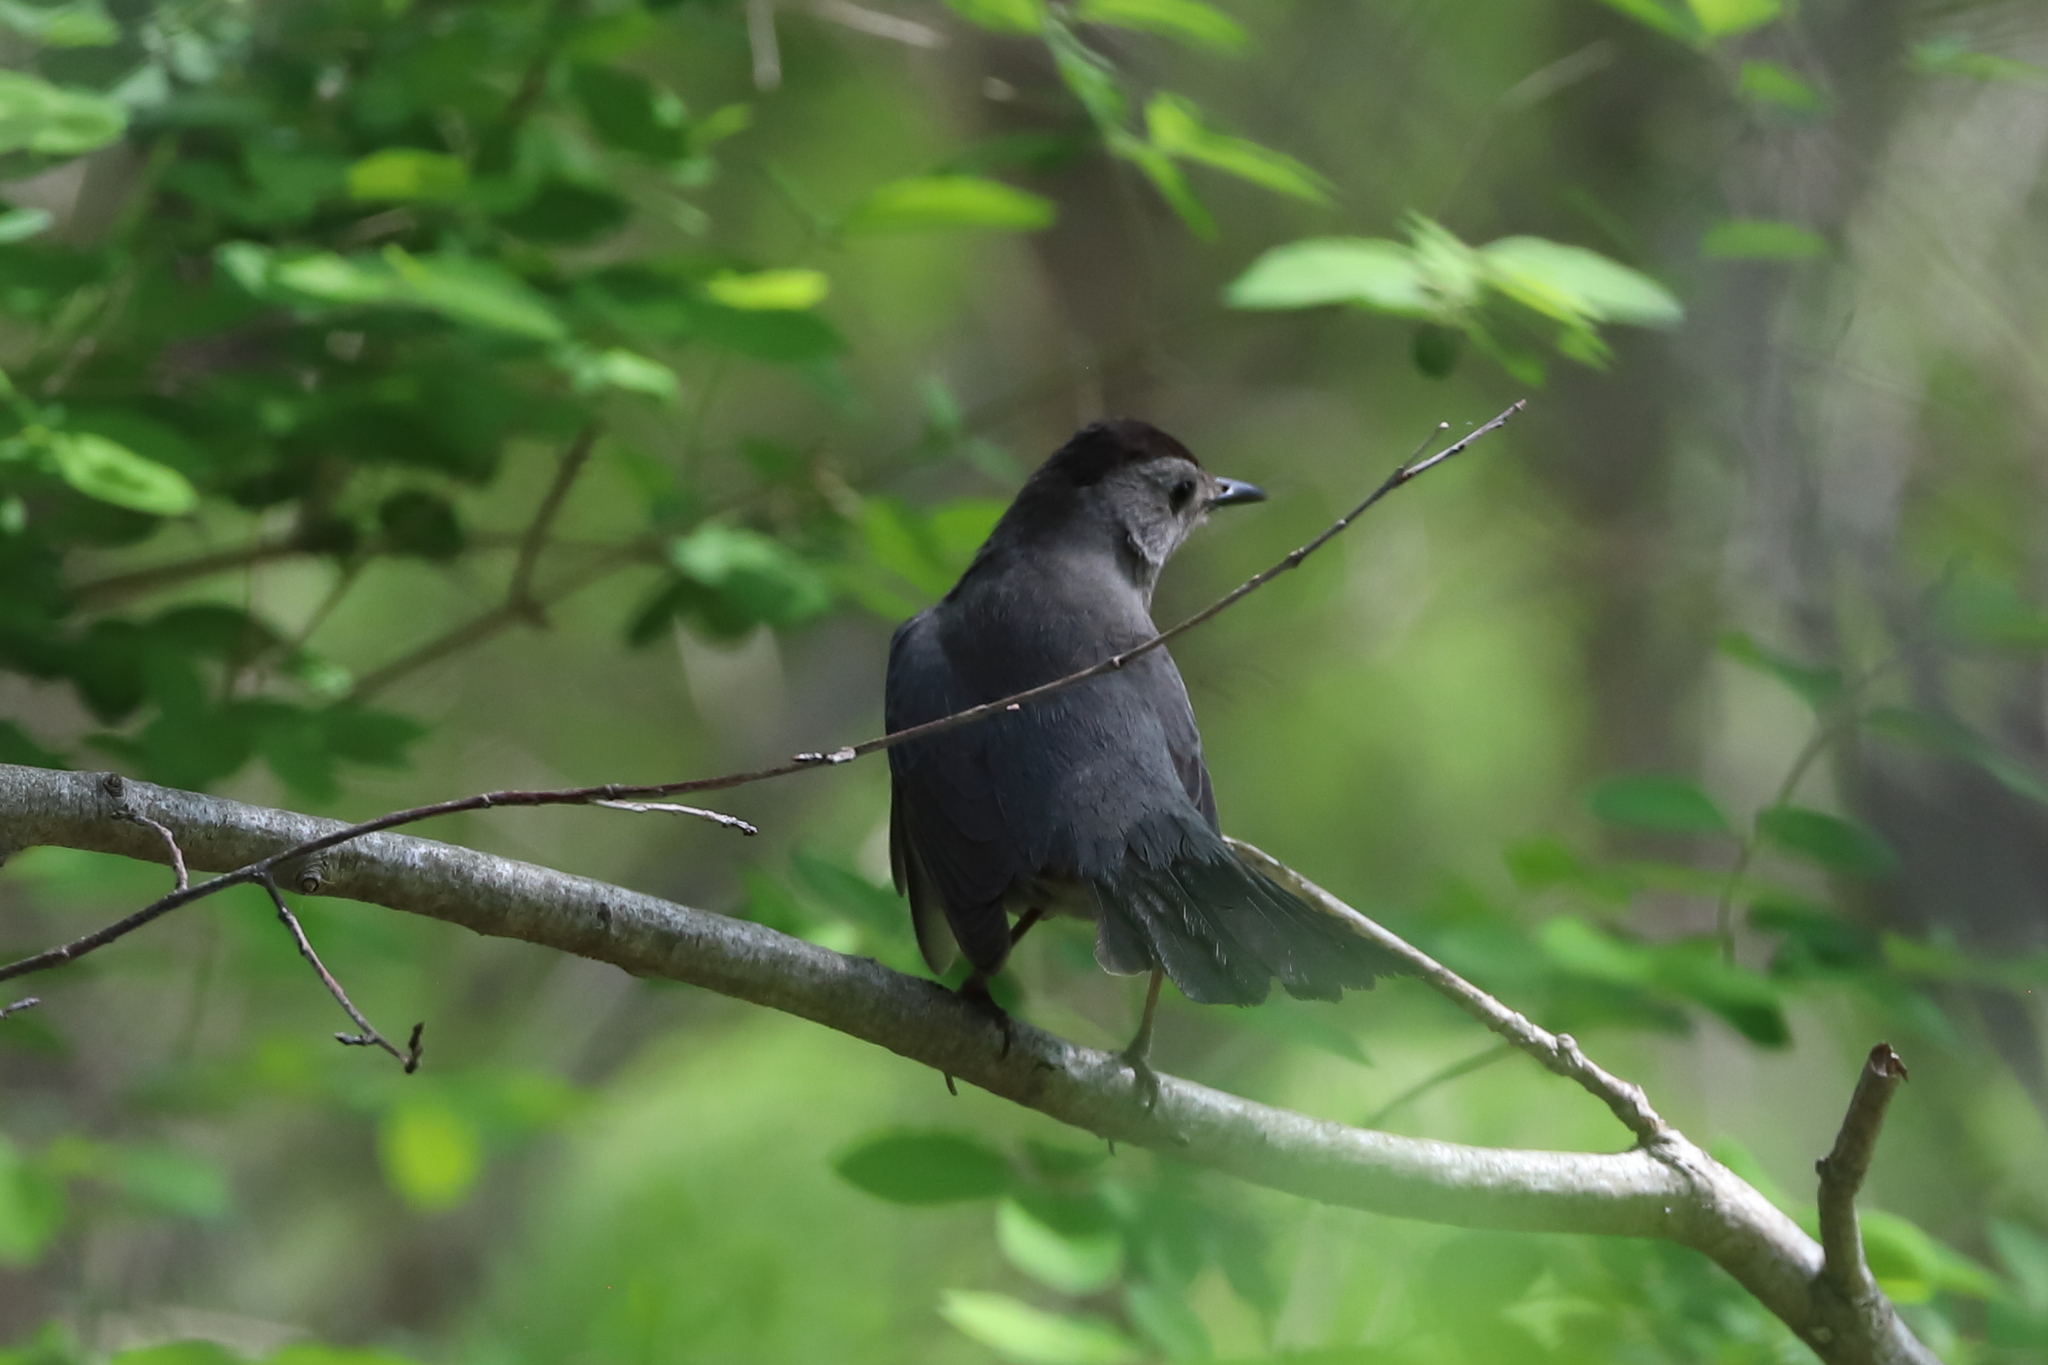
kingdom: Animalia
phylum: Chordata
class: Aves
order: Passeriformes
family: Mimidae
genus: Dumetella
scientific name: Dumetella carolinensis
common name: Gray catbird
